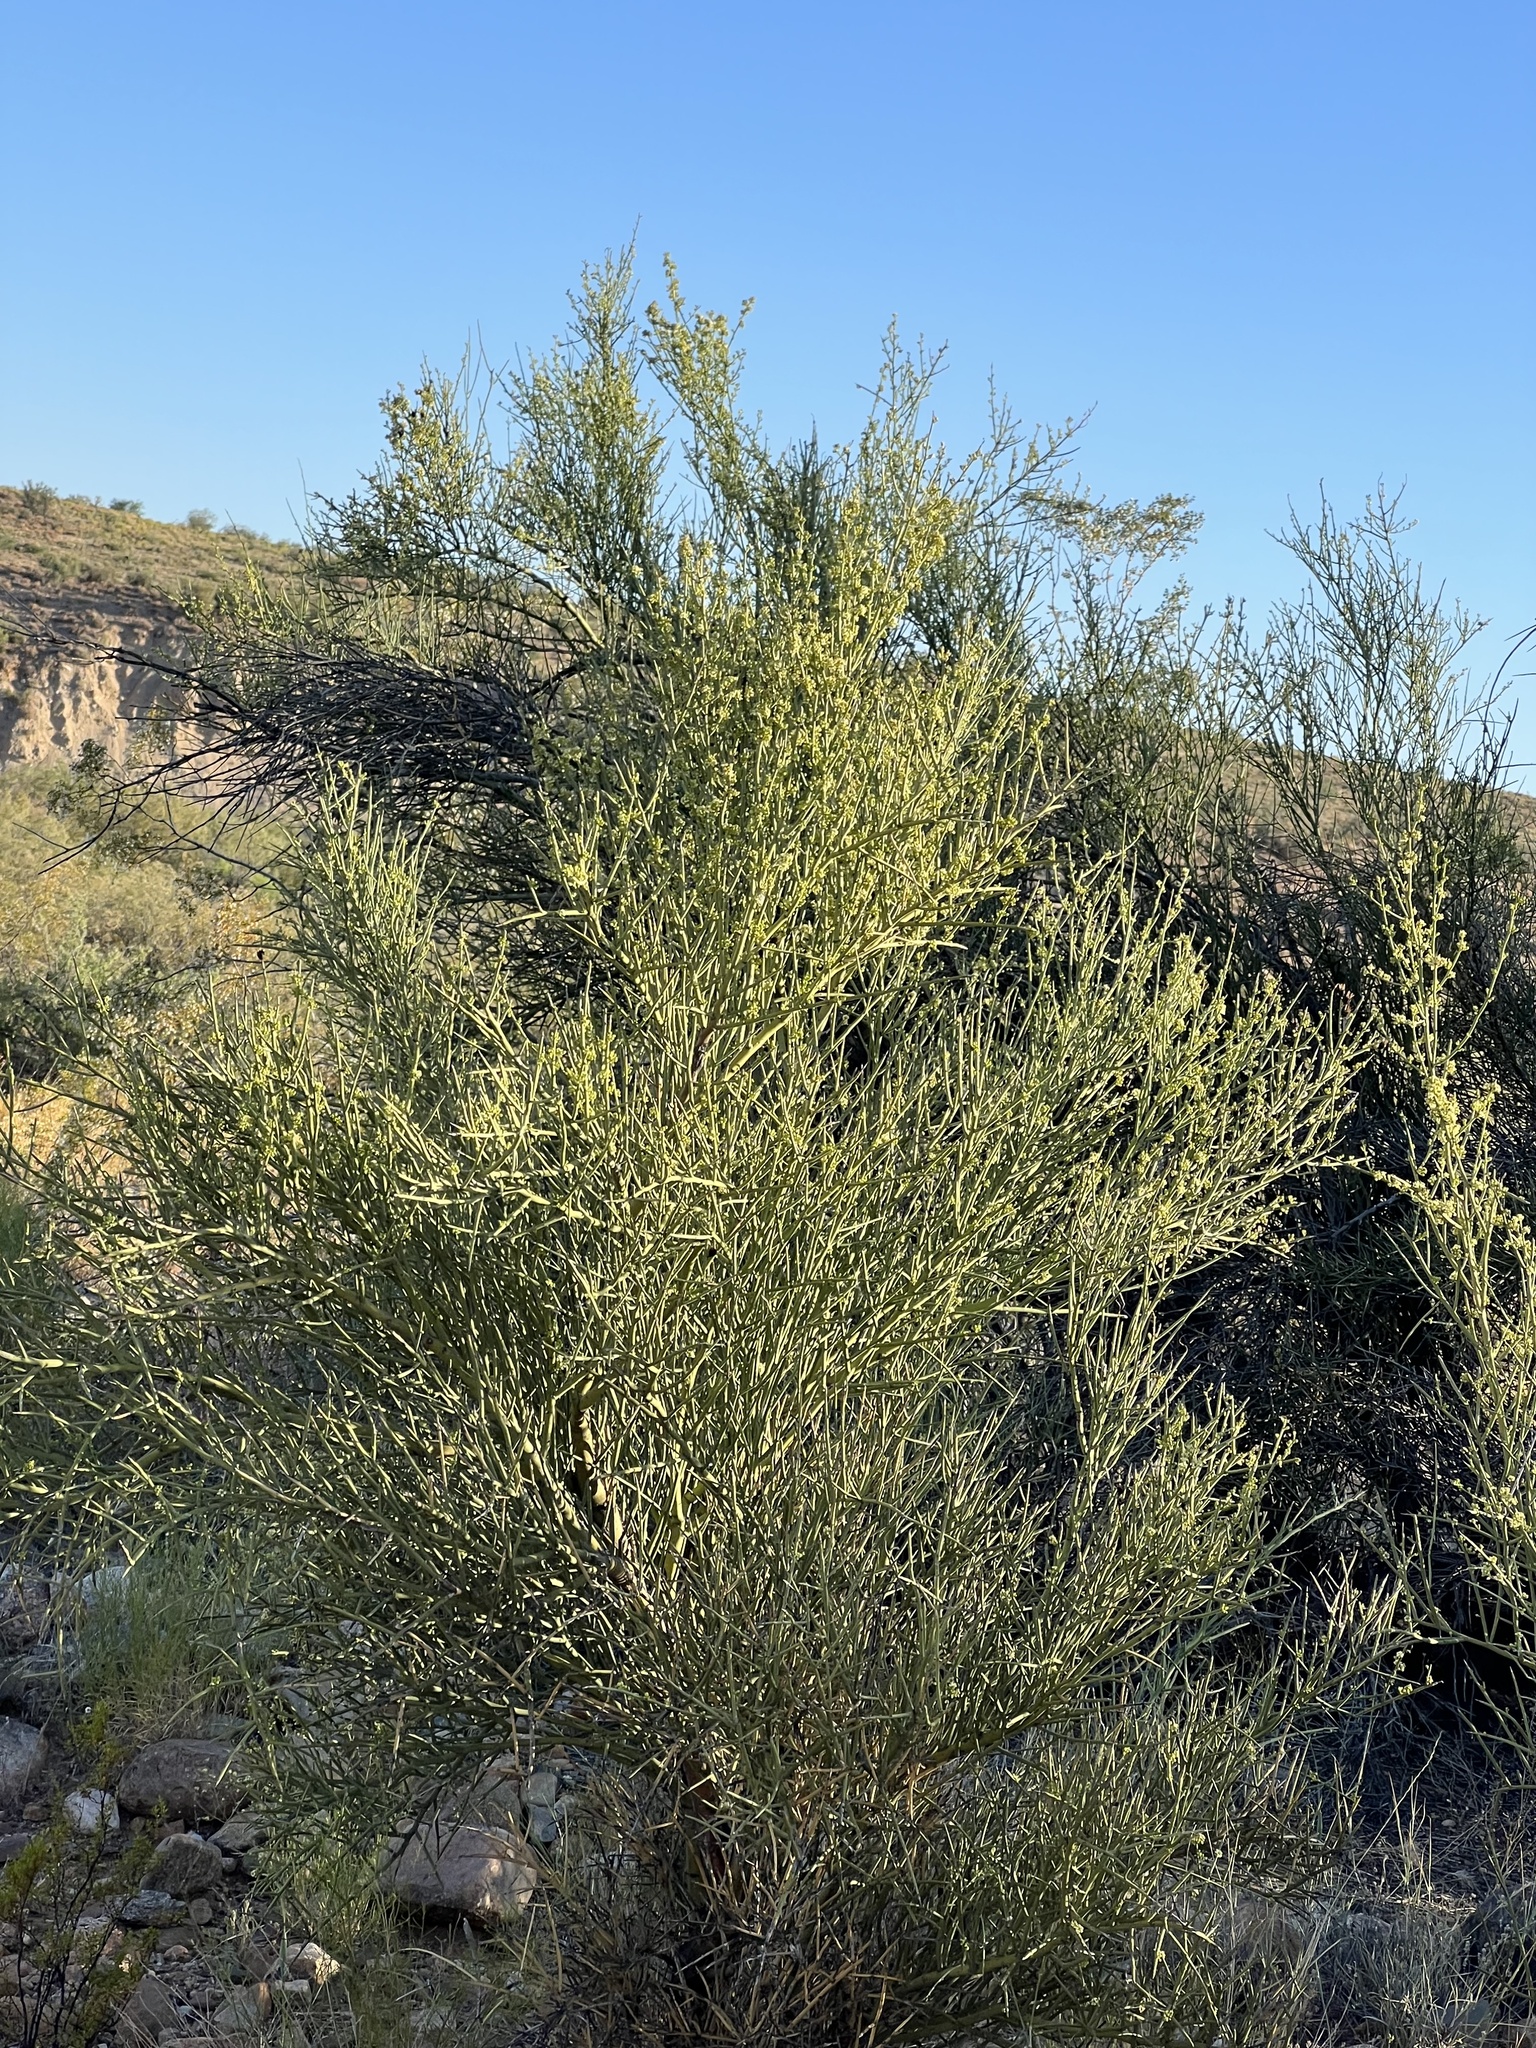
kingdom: Plantae
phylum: Tracheophyta
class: Magnoliopsida
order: Celastrales
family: Celastraceae
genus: Canotia
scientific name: Canotia holacantha
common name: Crucifixion thorns
